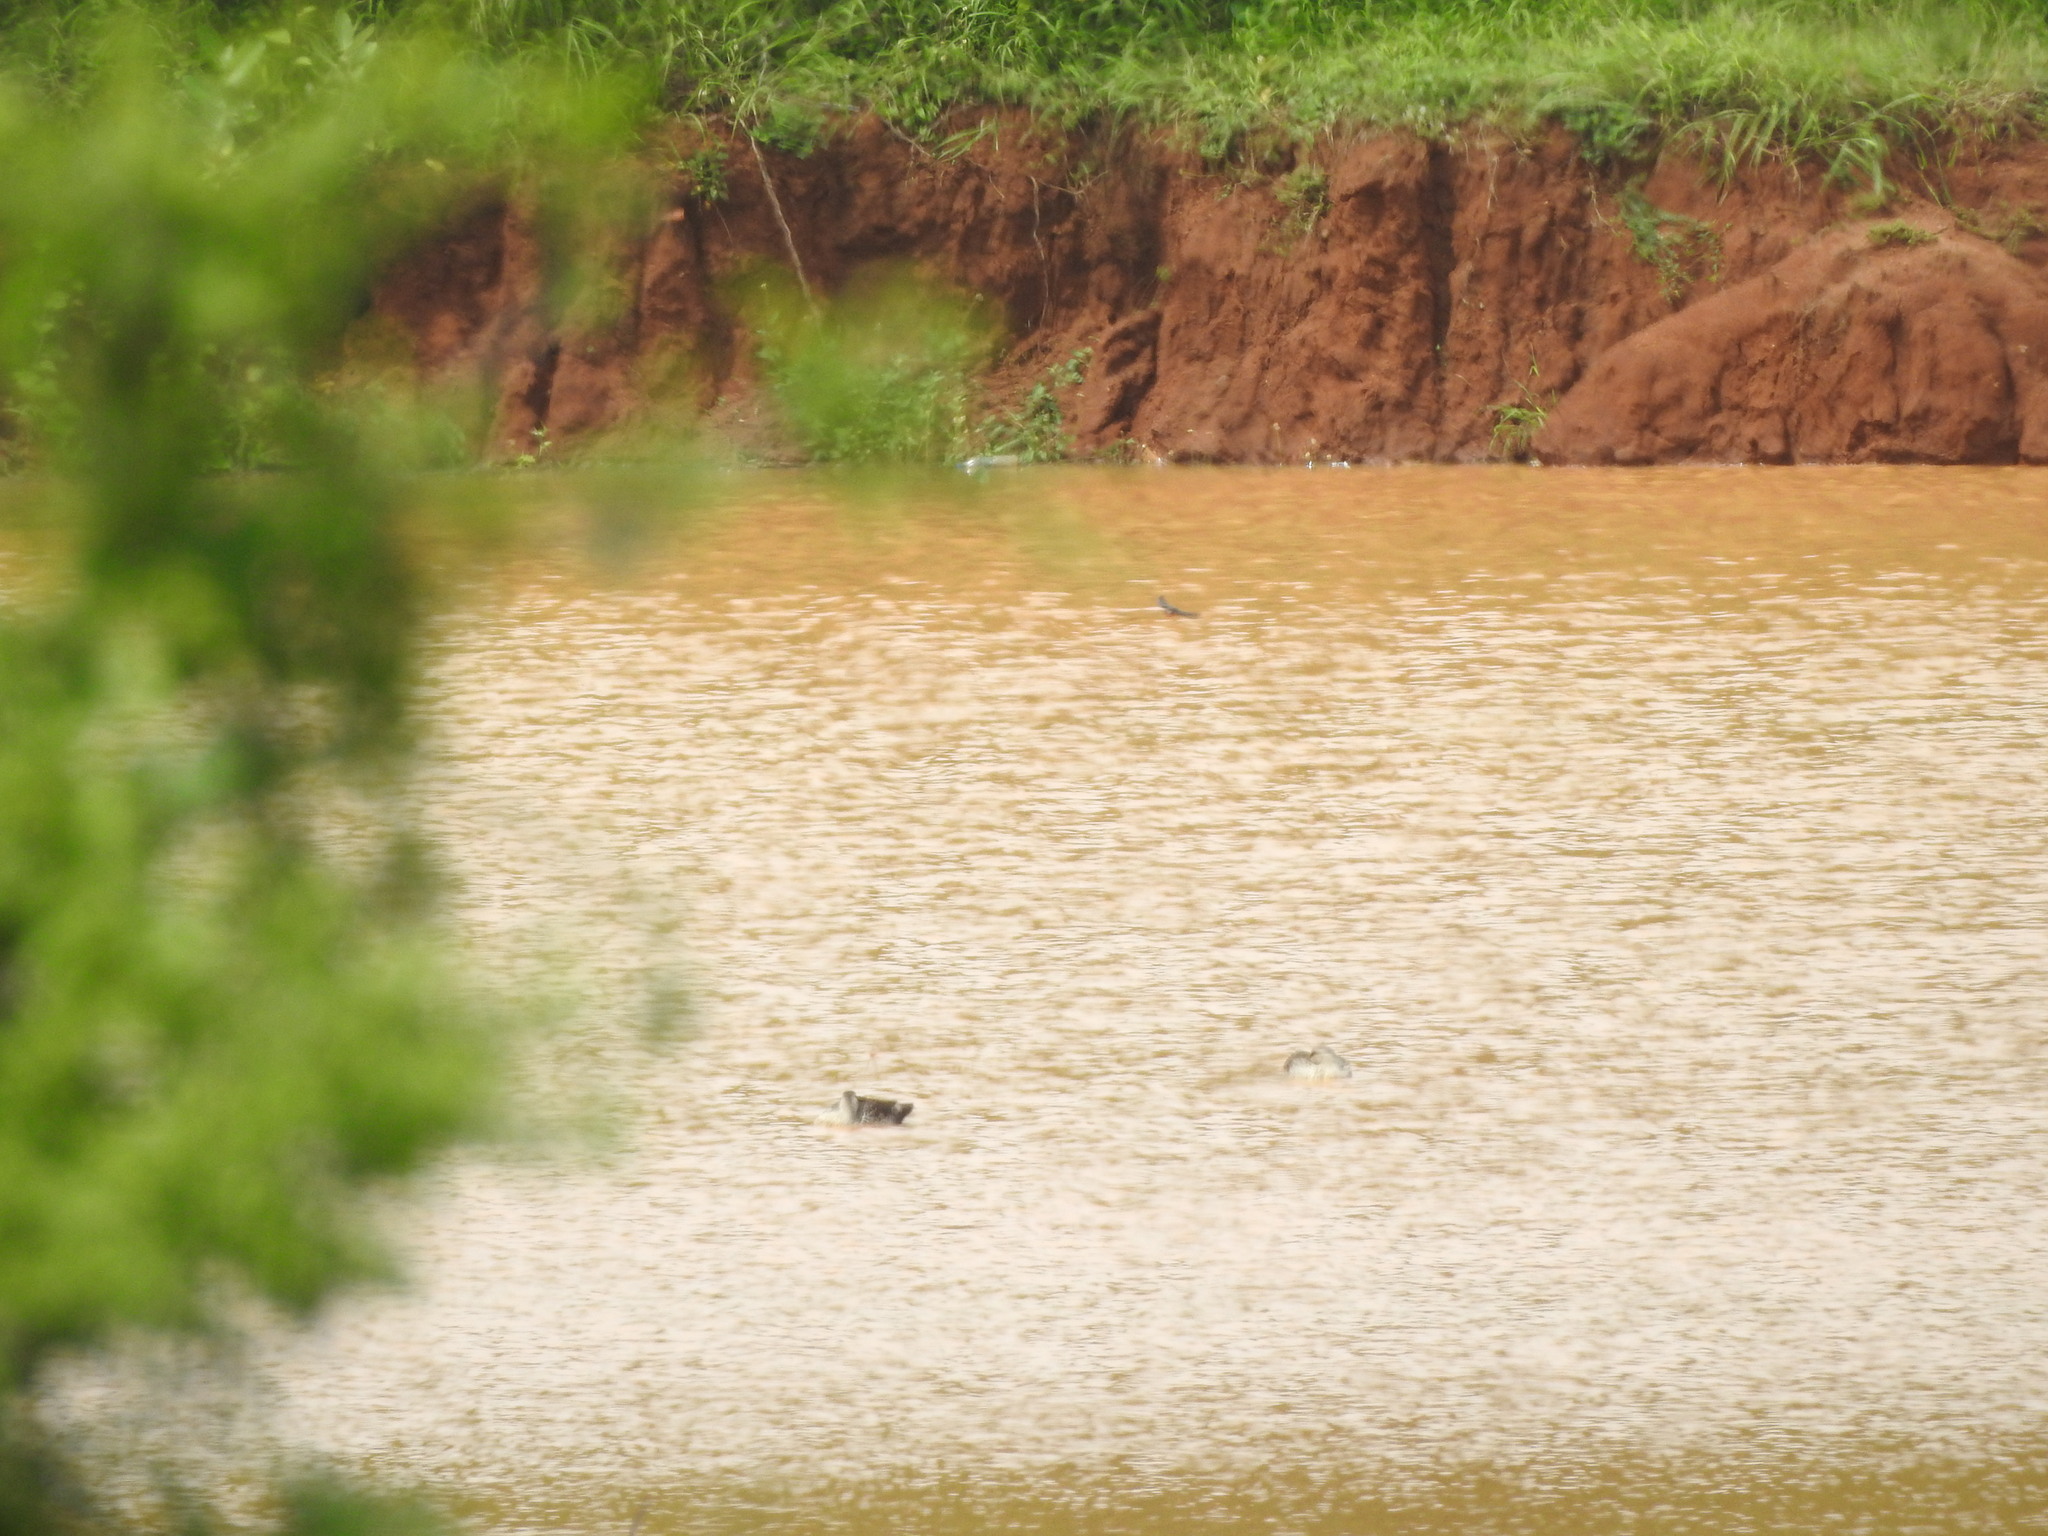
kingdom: Animalia
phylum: Chordata
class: Aves
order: Anseriformes
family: Anatidae
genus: Anas
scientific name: Anas poecilorhyncha
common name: Indian spot-billed duck
